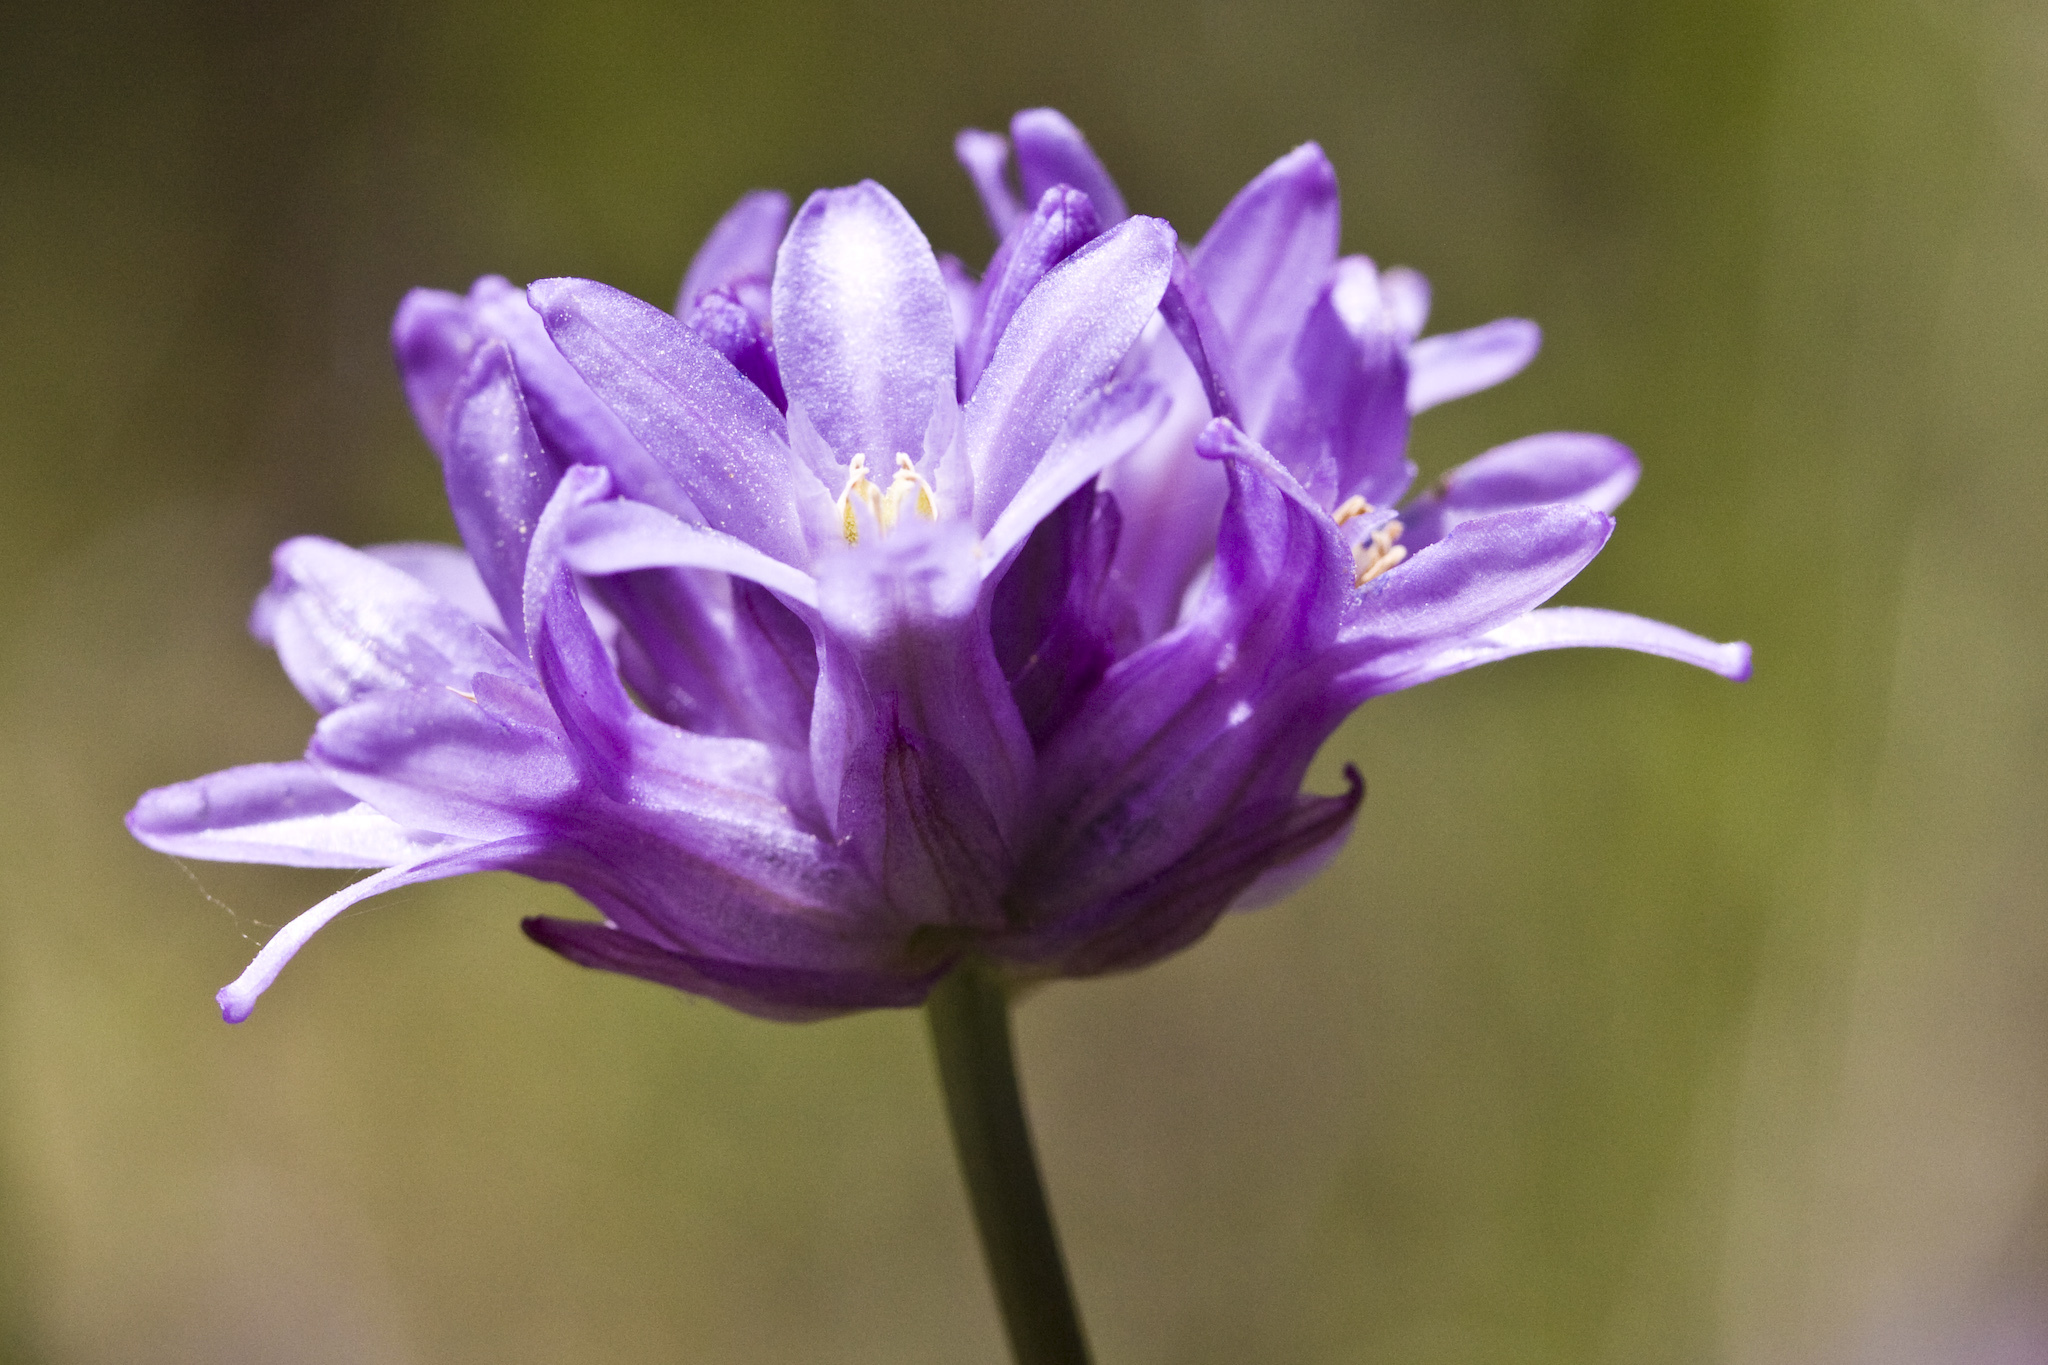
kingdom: Plantae
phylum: Tracheophyta
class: Liliopsida
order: Asparagales
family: Asparagaceae
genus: Dichelostemma
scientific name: Dichelostemma congestum
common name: Fork-tooth ookow
